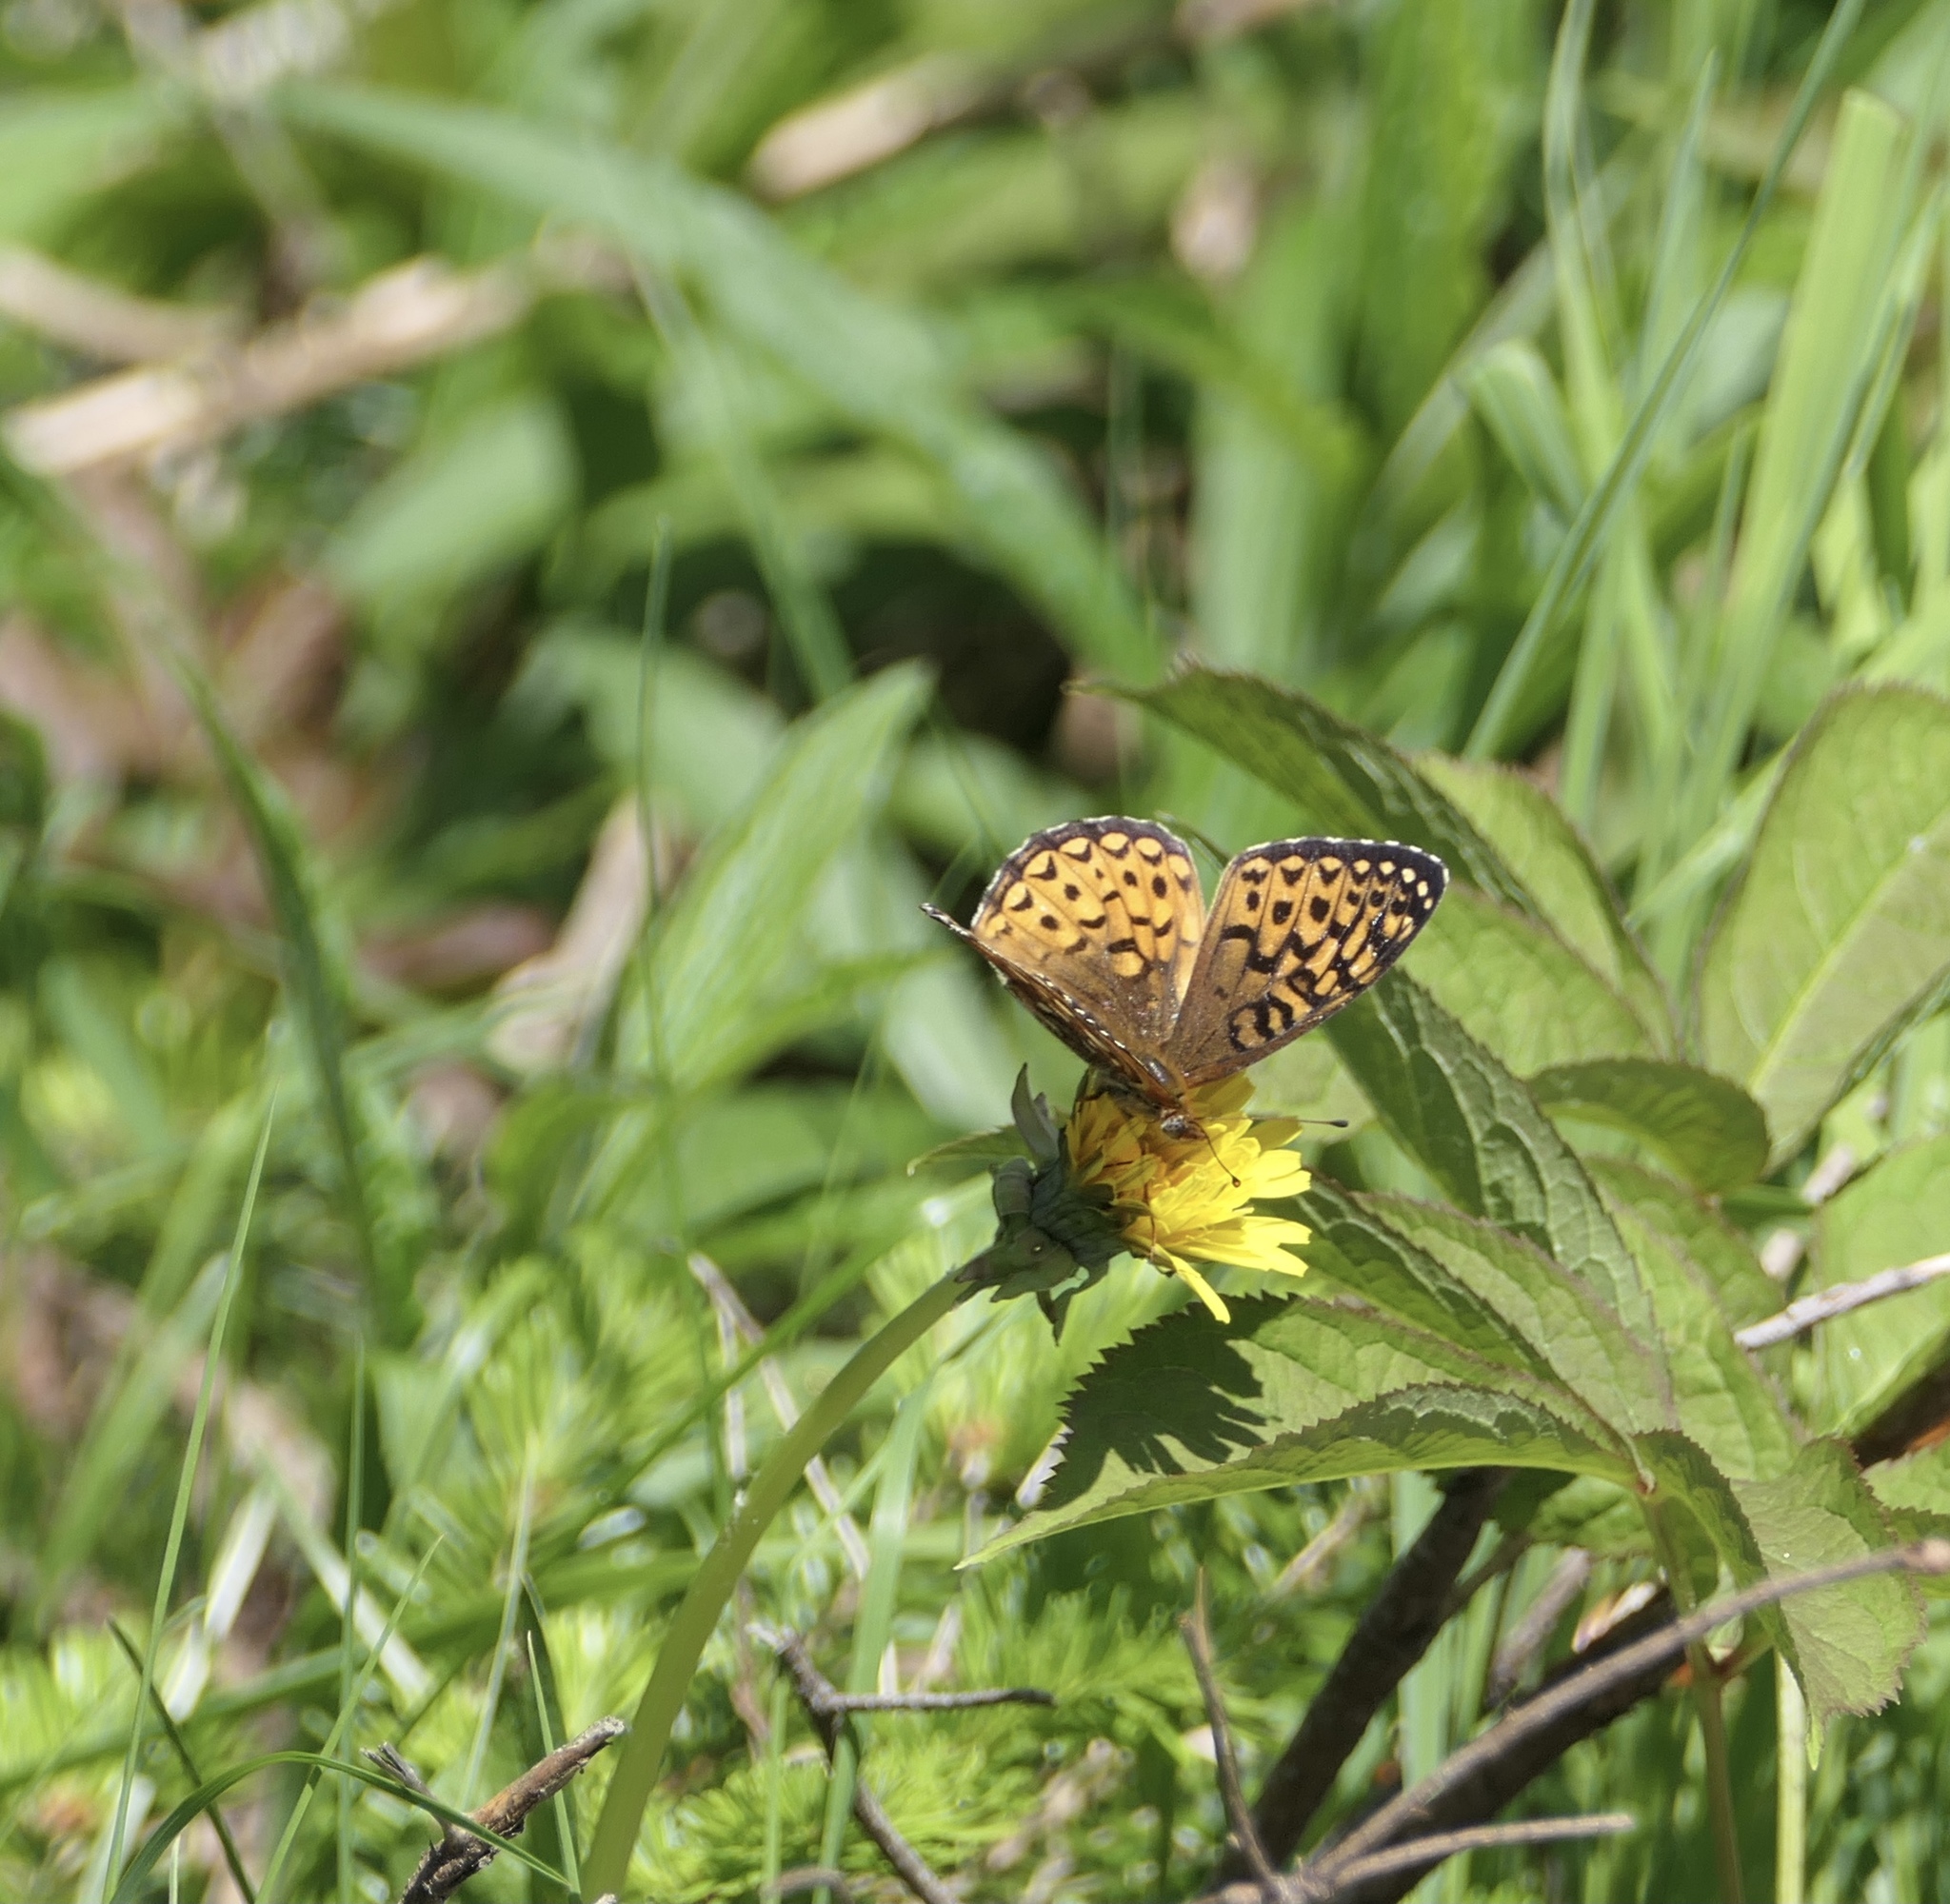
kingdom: Animalia
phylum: Arthropoda
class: Insecta
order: Lepidoptera
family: Nymphalidae
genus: Speyeria
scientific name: Speyeria atlantis
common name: Atlantis fritillary
